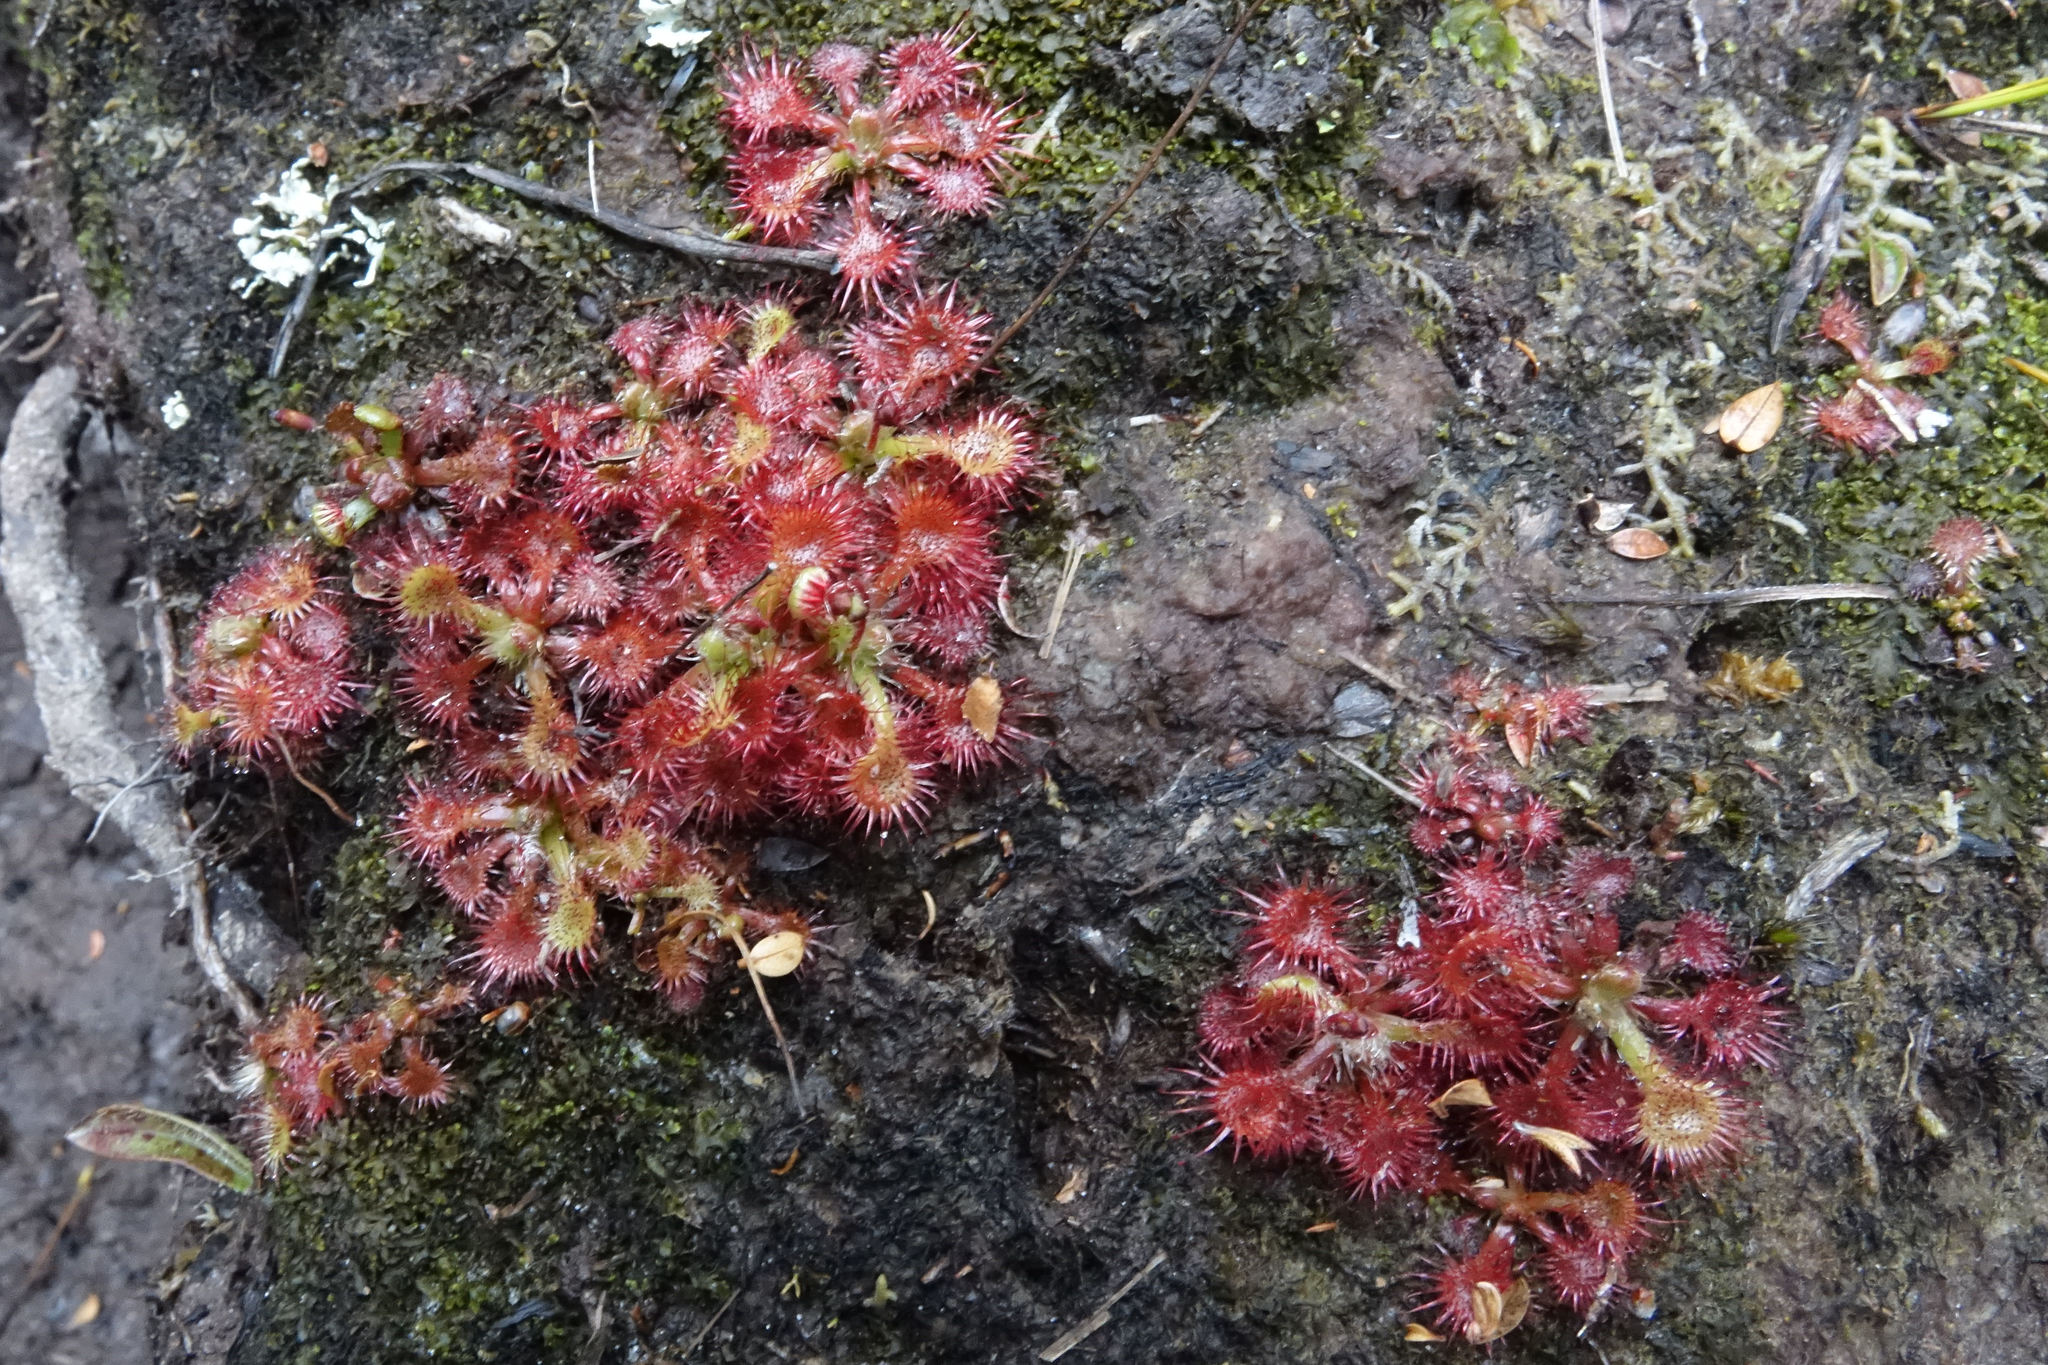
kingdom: Plantae
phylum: Tracheophyta
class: Magnoliopsida
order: Caryophyllales
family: Droseraceae
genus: Drosera
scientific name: Drosera spatulata
